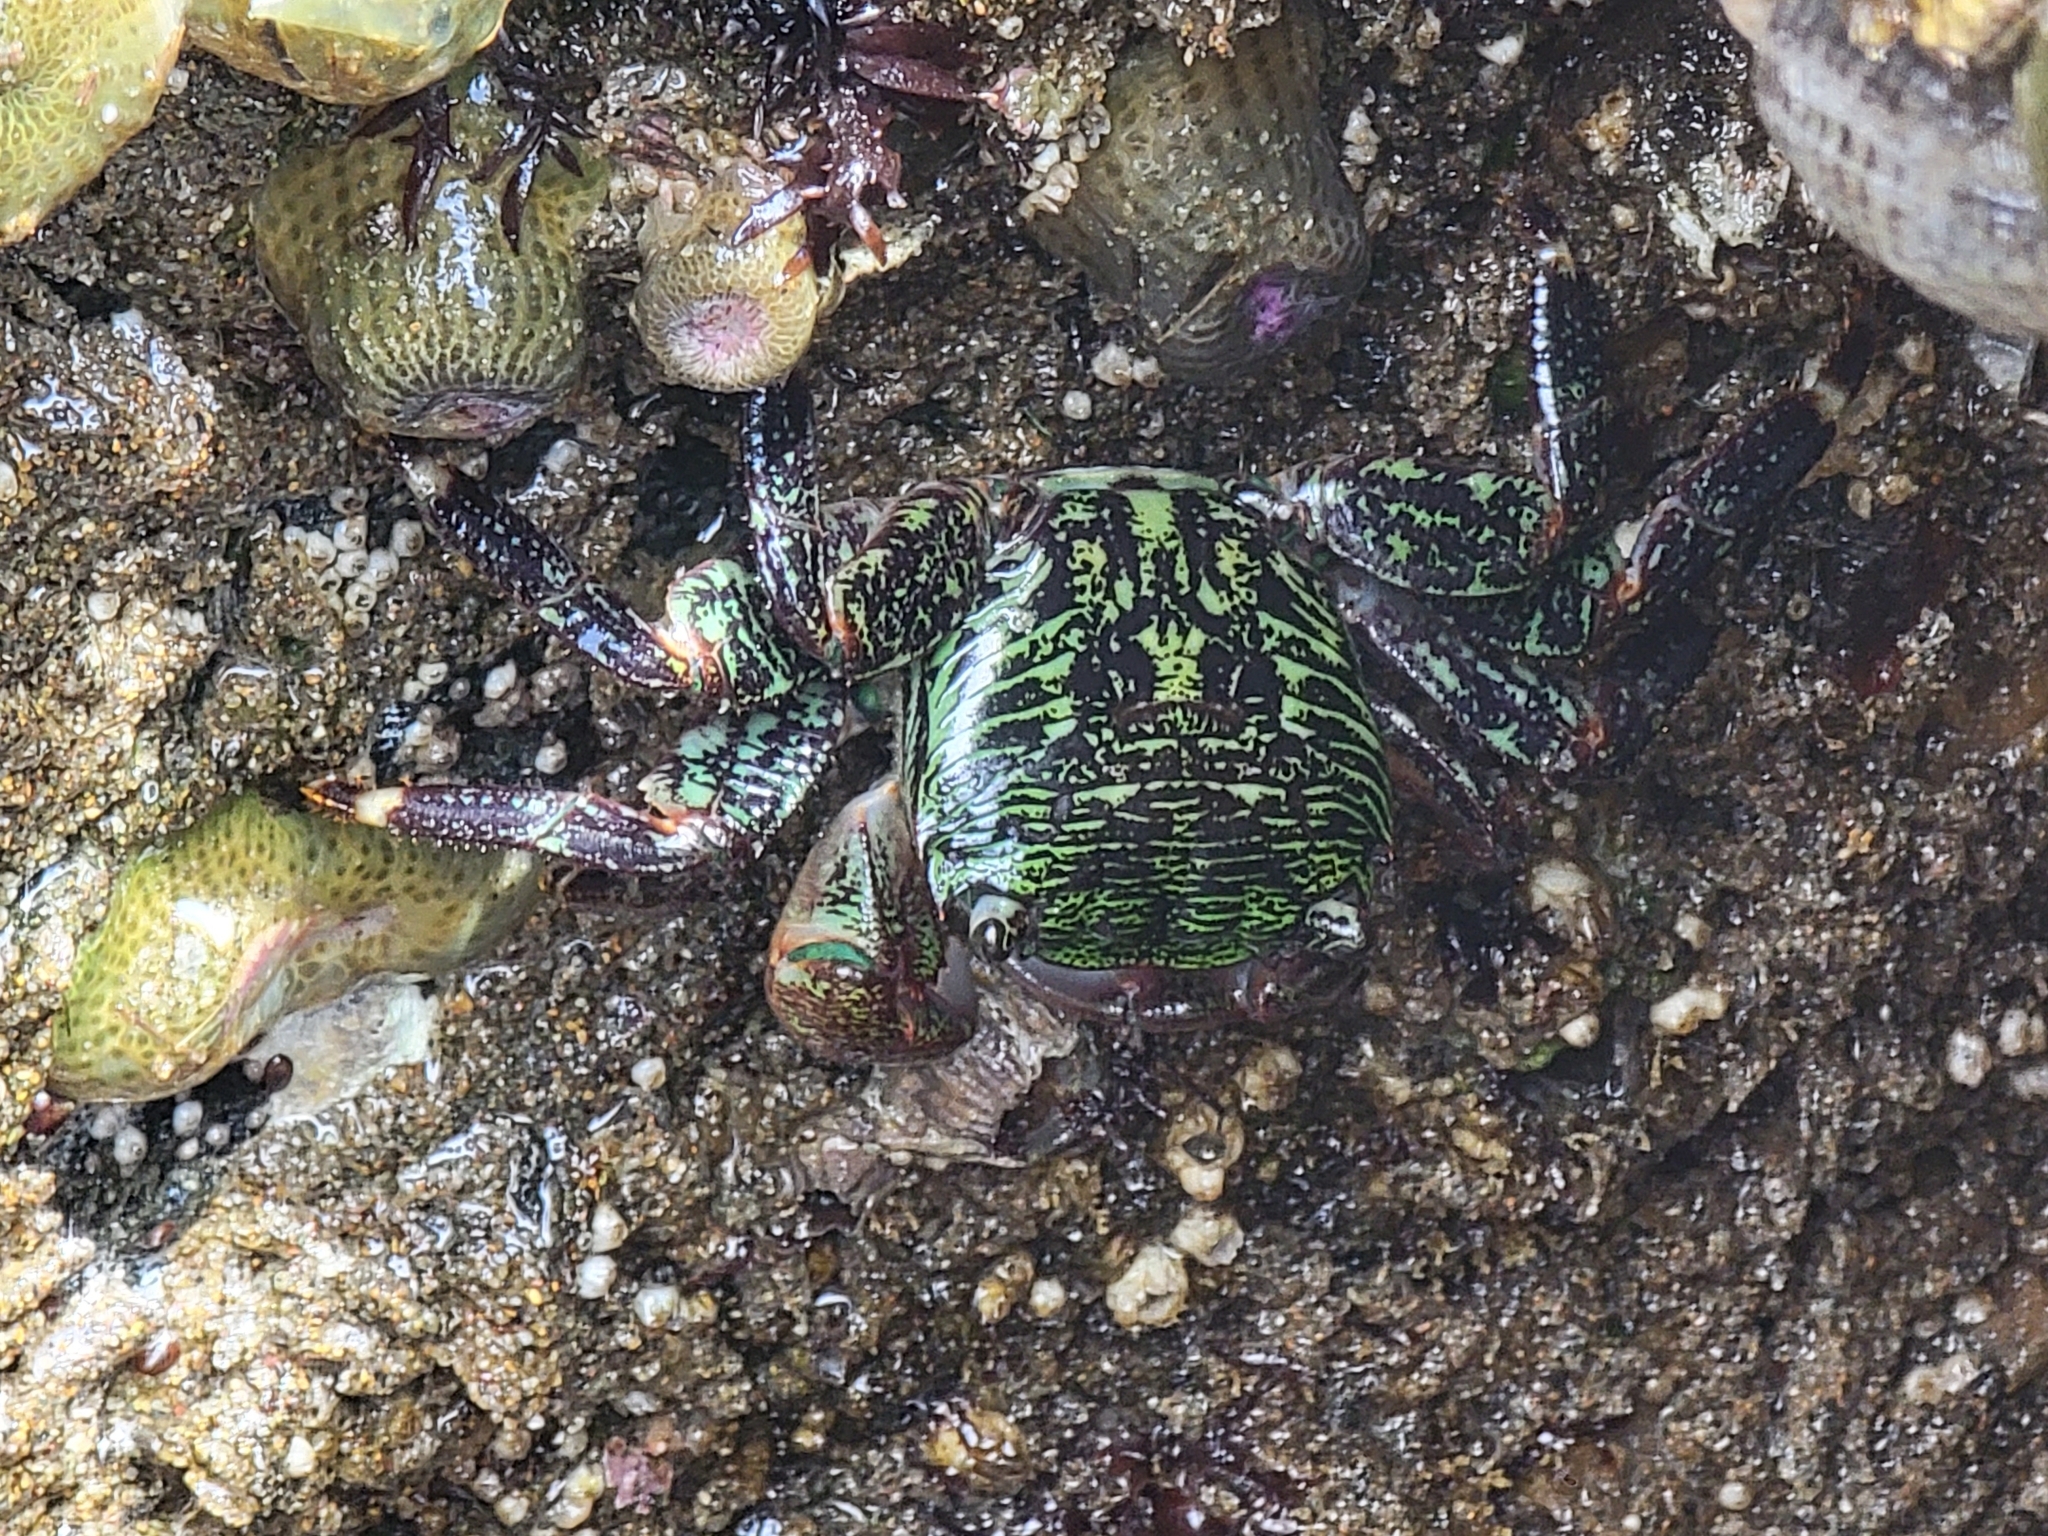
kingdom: Animalia
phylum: Arthropoda
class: Malacostraca
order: Decapoda
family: Grapsidae
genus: Pachygrapsus
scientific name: Pachygrapsus crassipes
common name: Striped shore crab
